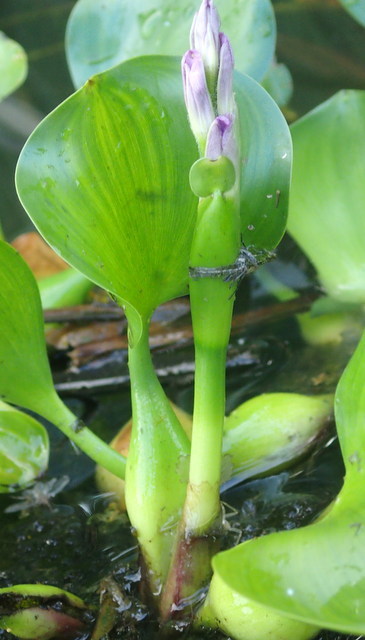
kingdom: Plantae
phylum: Tracheophyta
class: Liliopsida
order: Commelinales
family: Pontederiaceae
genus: Pontederia
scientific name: Pontederia crassipes
